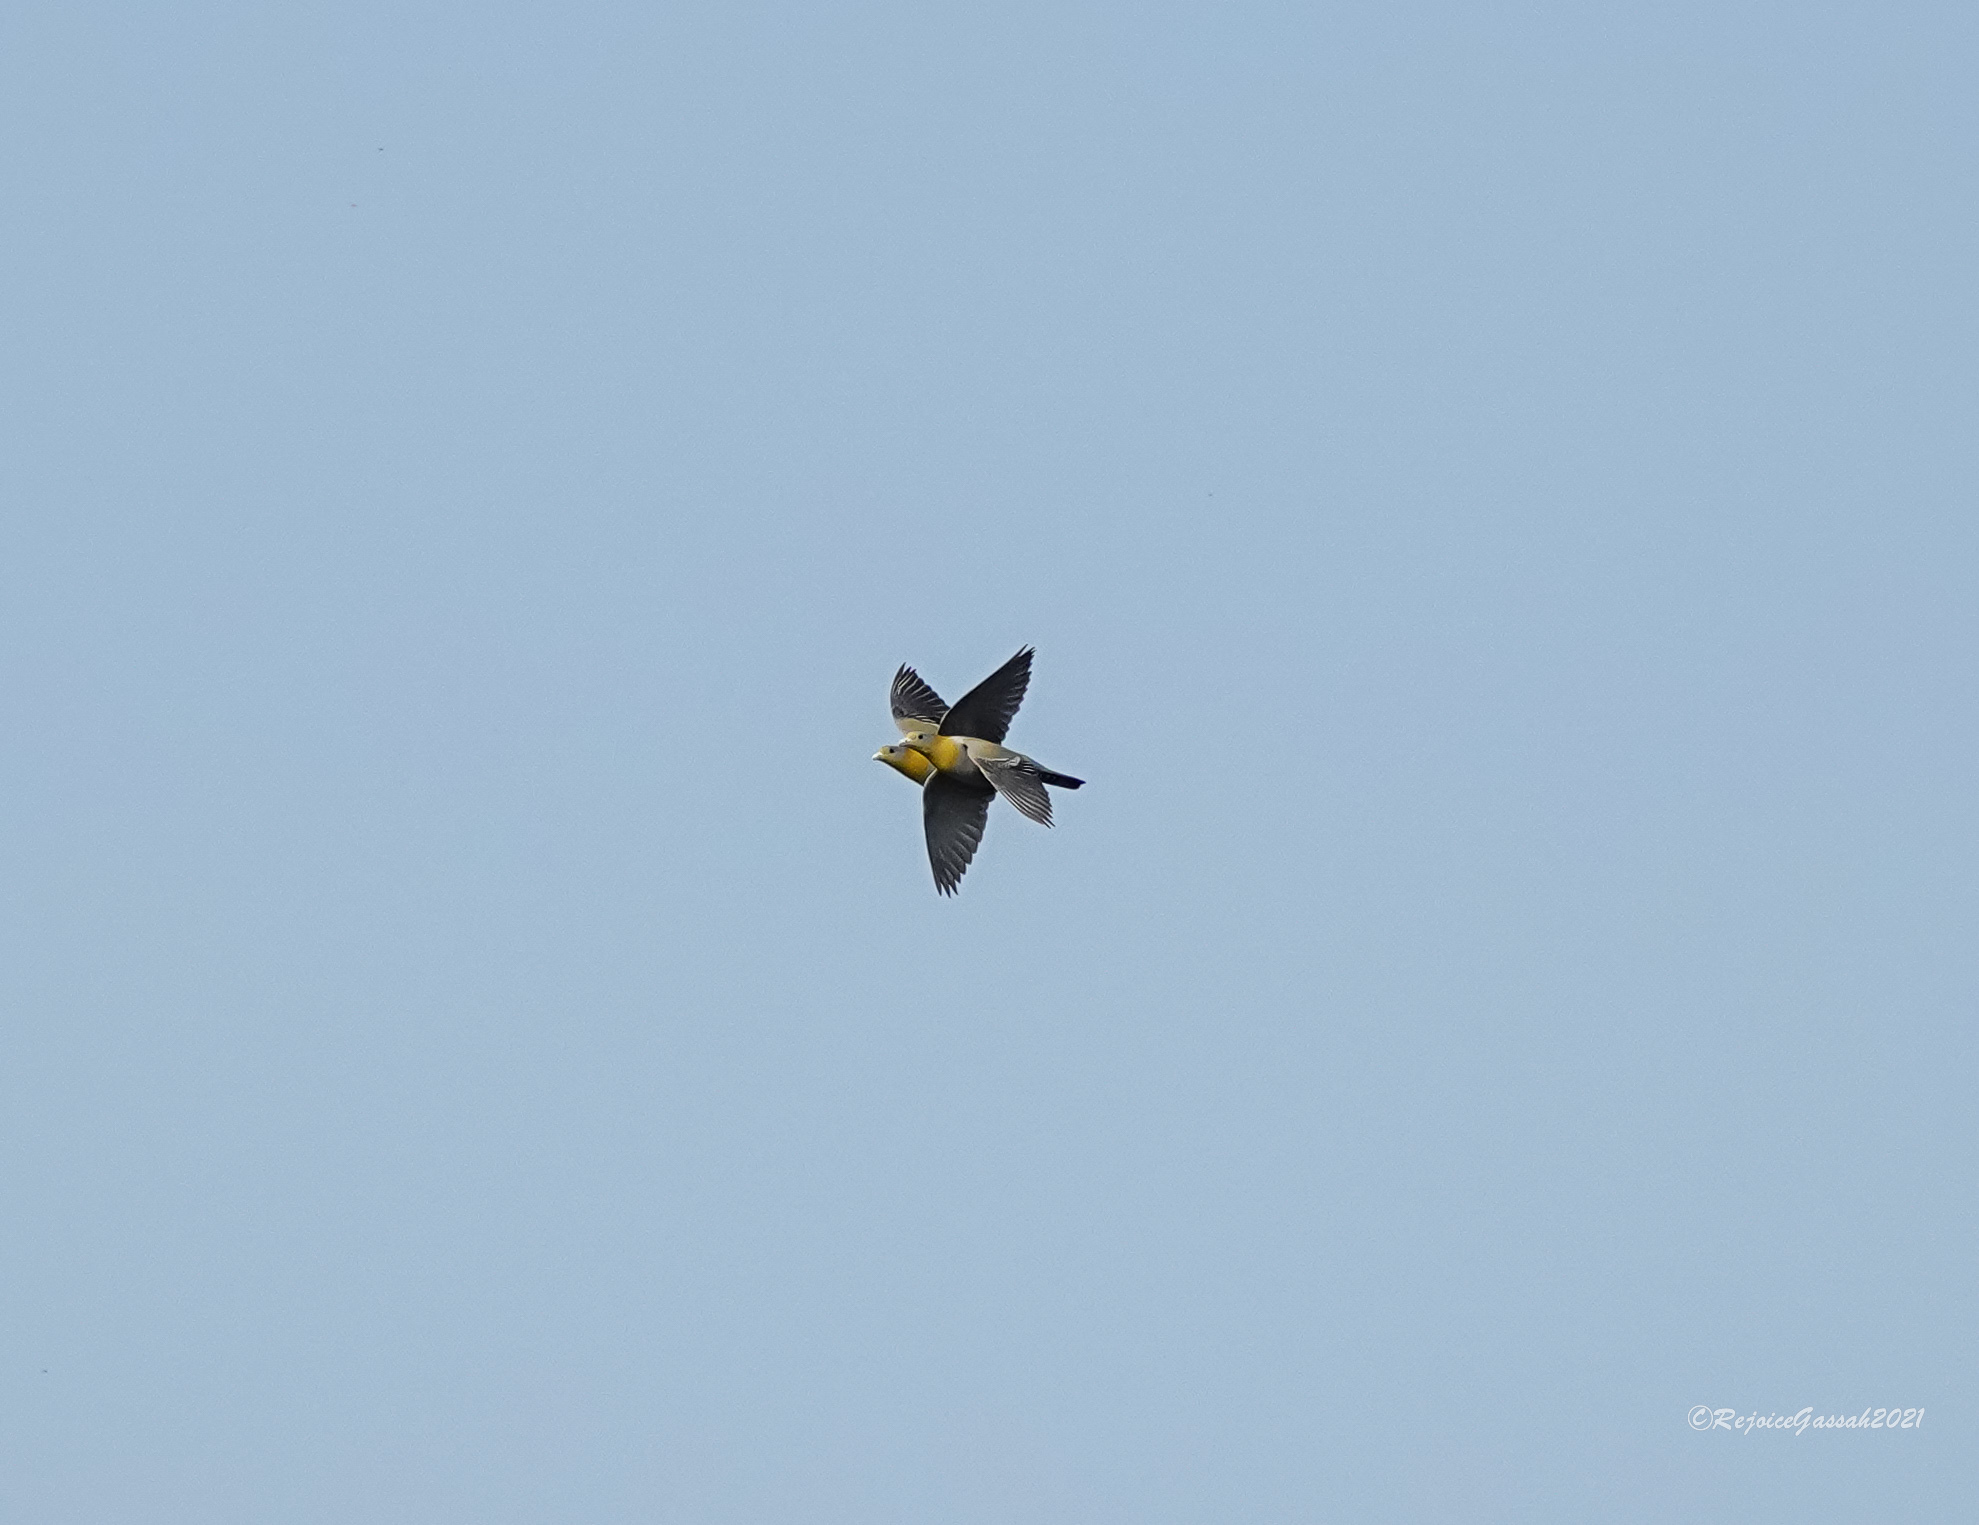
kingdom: Animalia
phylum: Chordata
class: Aves
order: Columbiformes
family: Columbidae
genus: Treron
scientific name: Treron phoenicopterus
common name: Yellow-footed green pigeon
